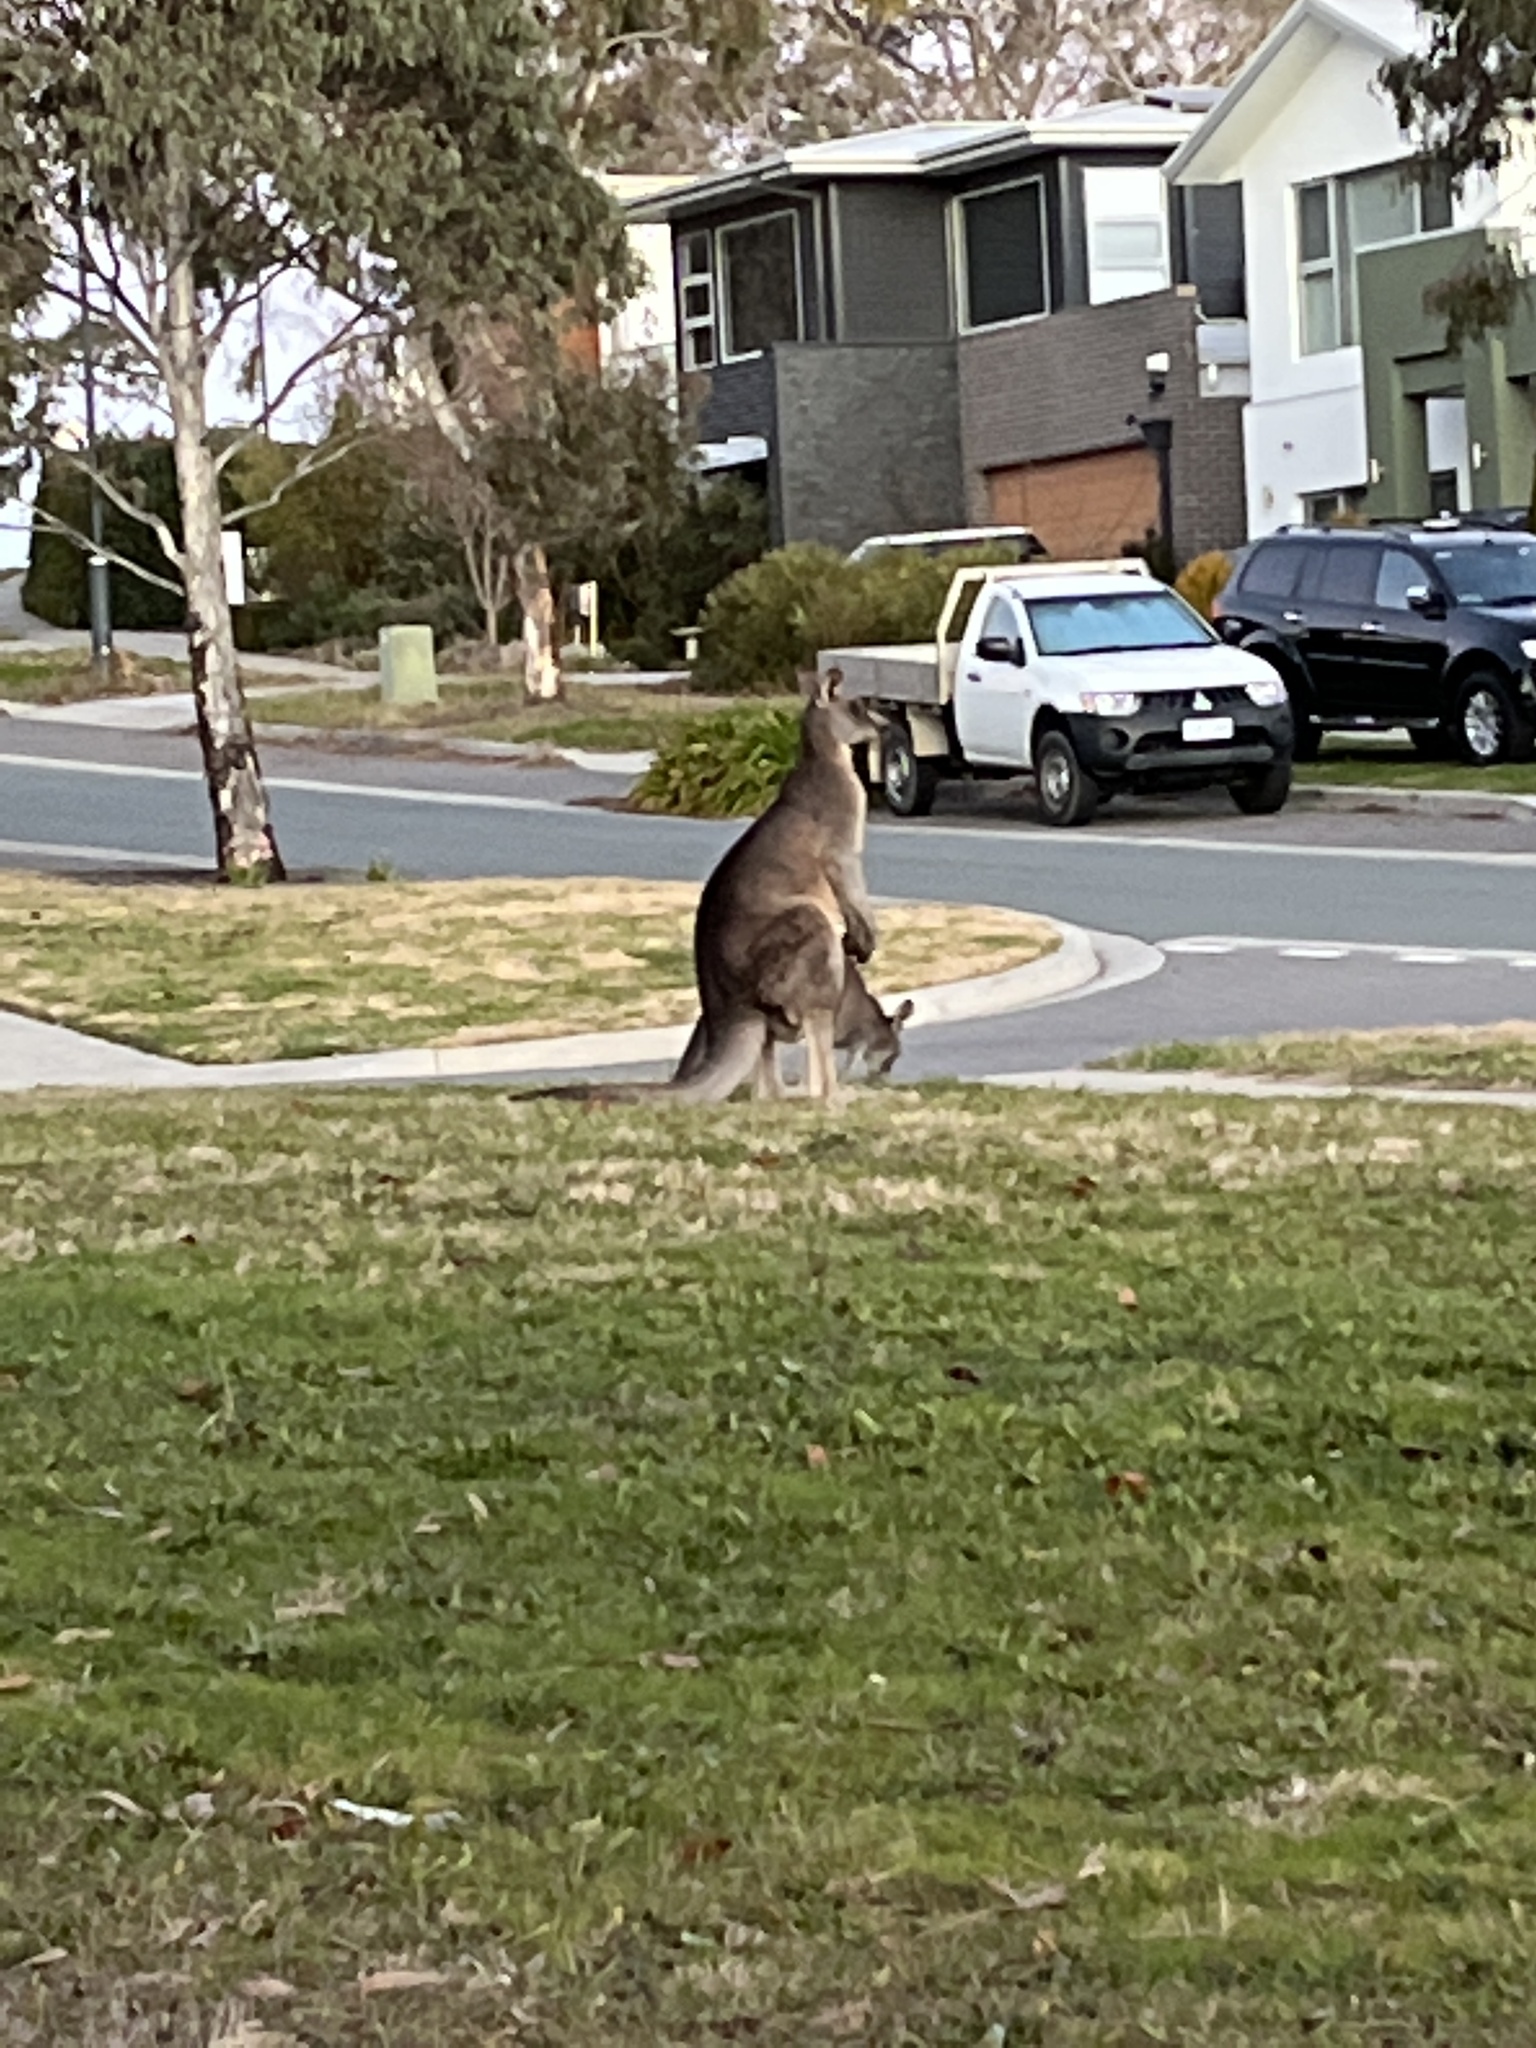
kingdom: Animalia
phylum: Chordata
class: Mammalia
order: Diprotodontia
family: Macropodidae
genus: Macropus
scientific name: Macropus giganteus
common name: Eastern grey kangaroo
